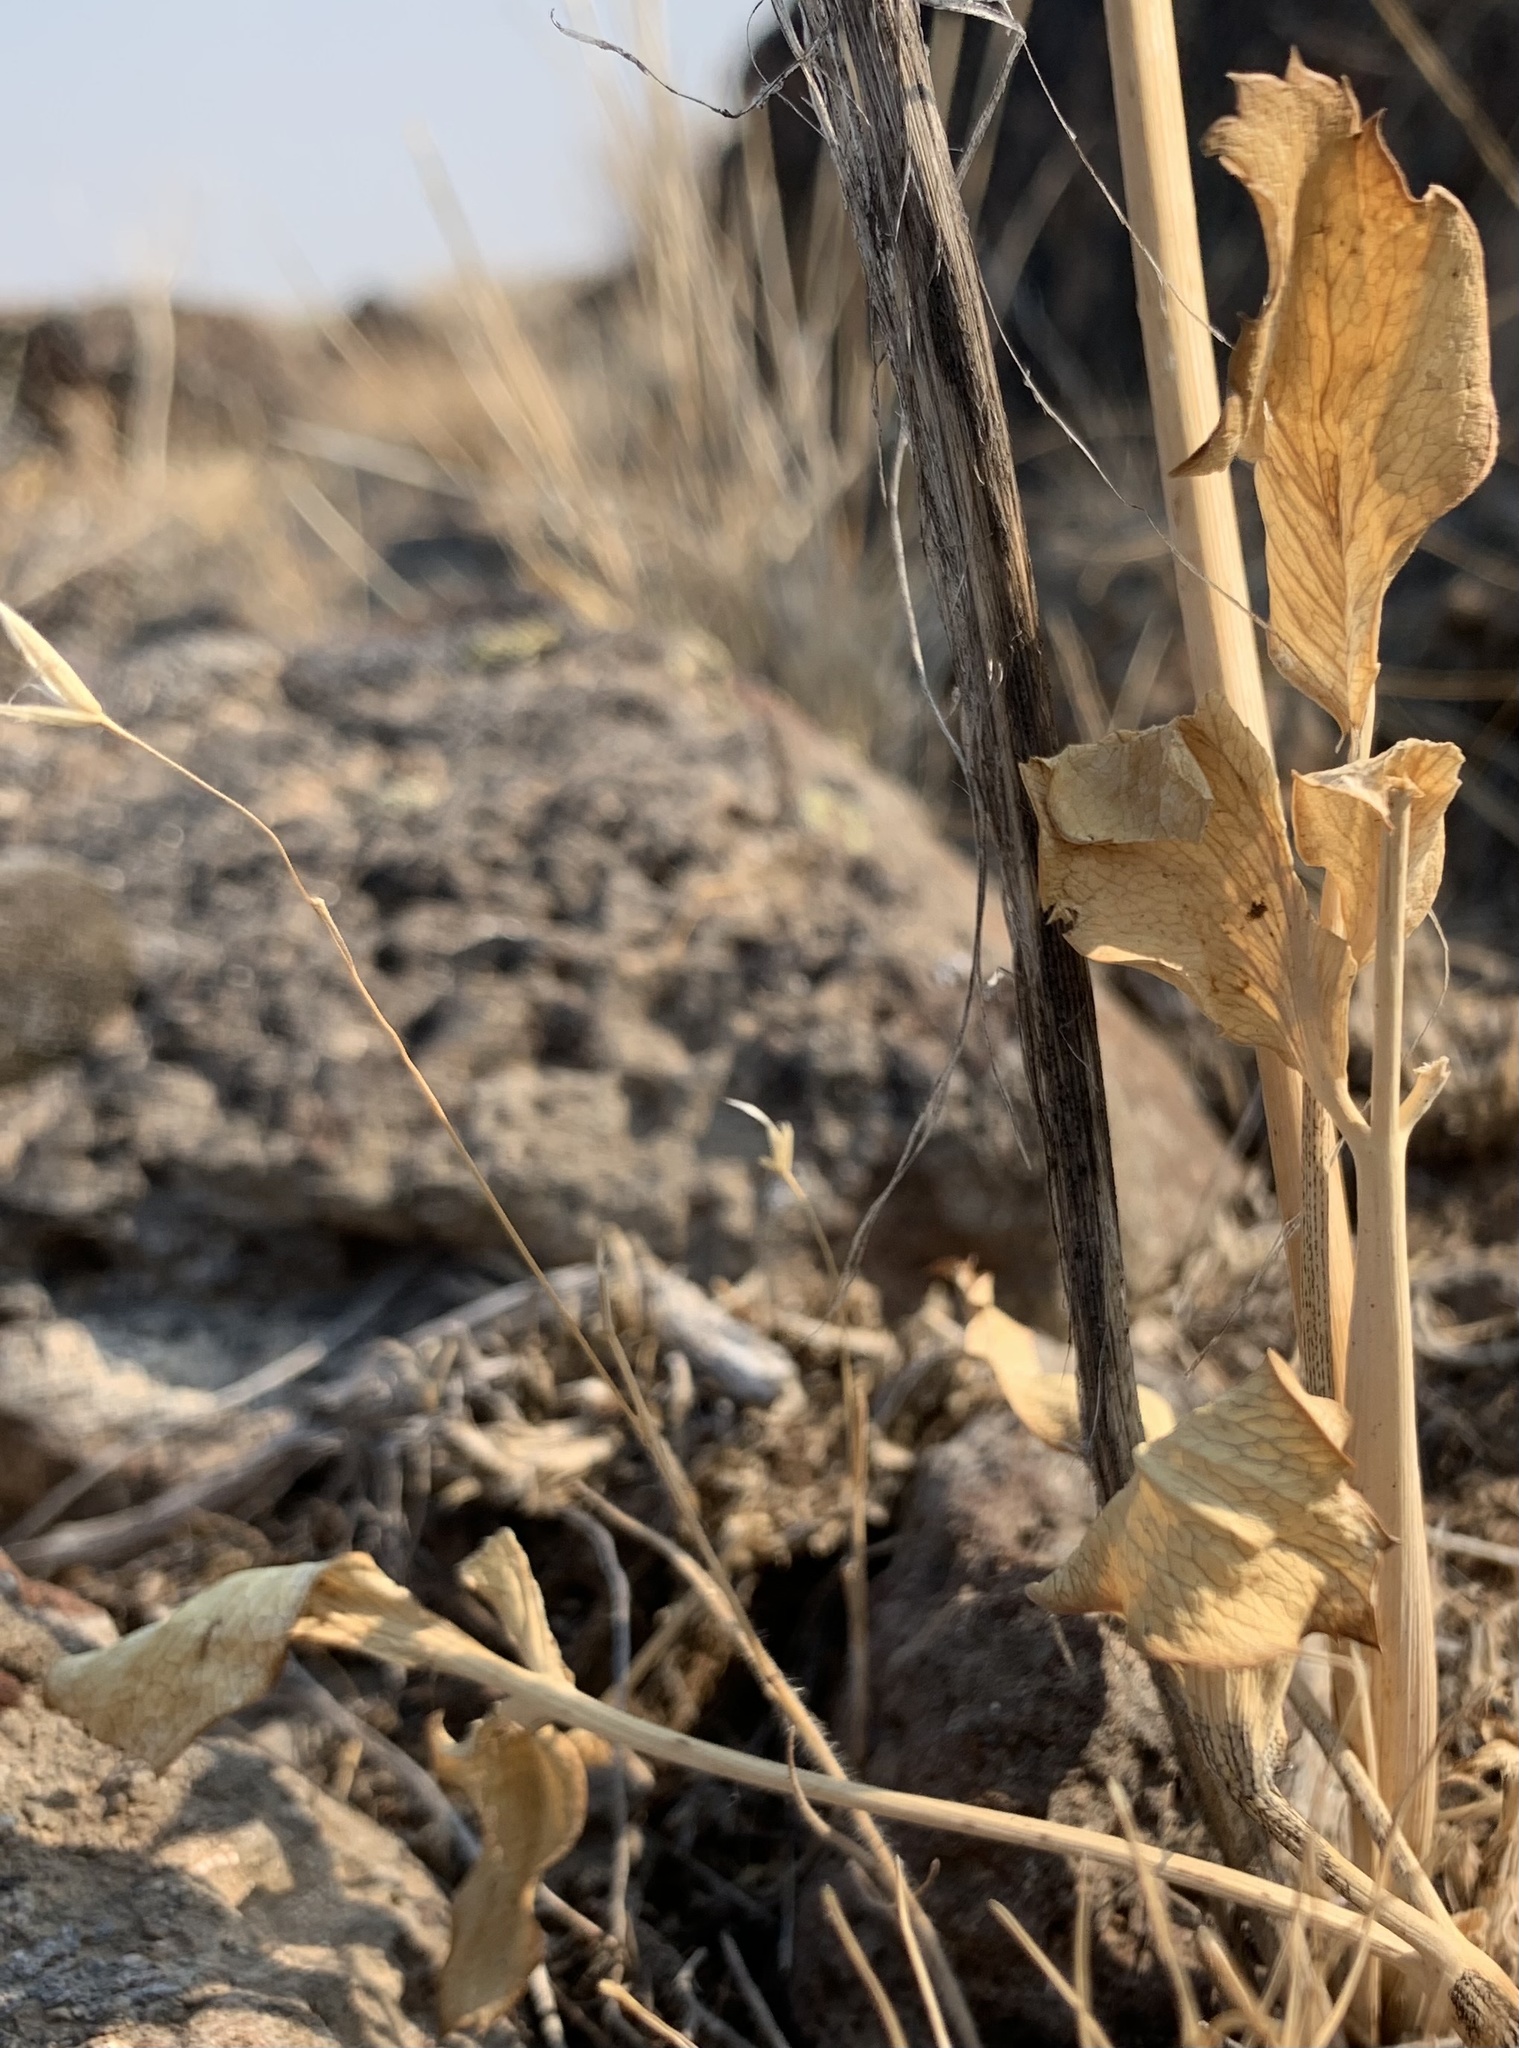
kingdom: Plantae
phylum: Tracheophyta
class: Magnoliopsida
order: Apiales
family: Apiaceae
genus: Lomatium
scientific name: Lomatium nudicaule
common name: Pestle lomatium
